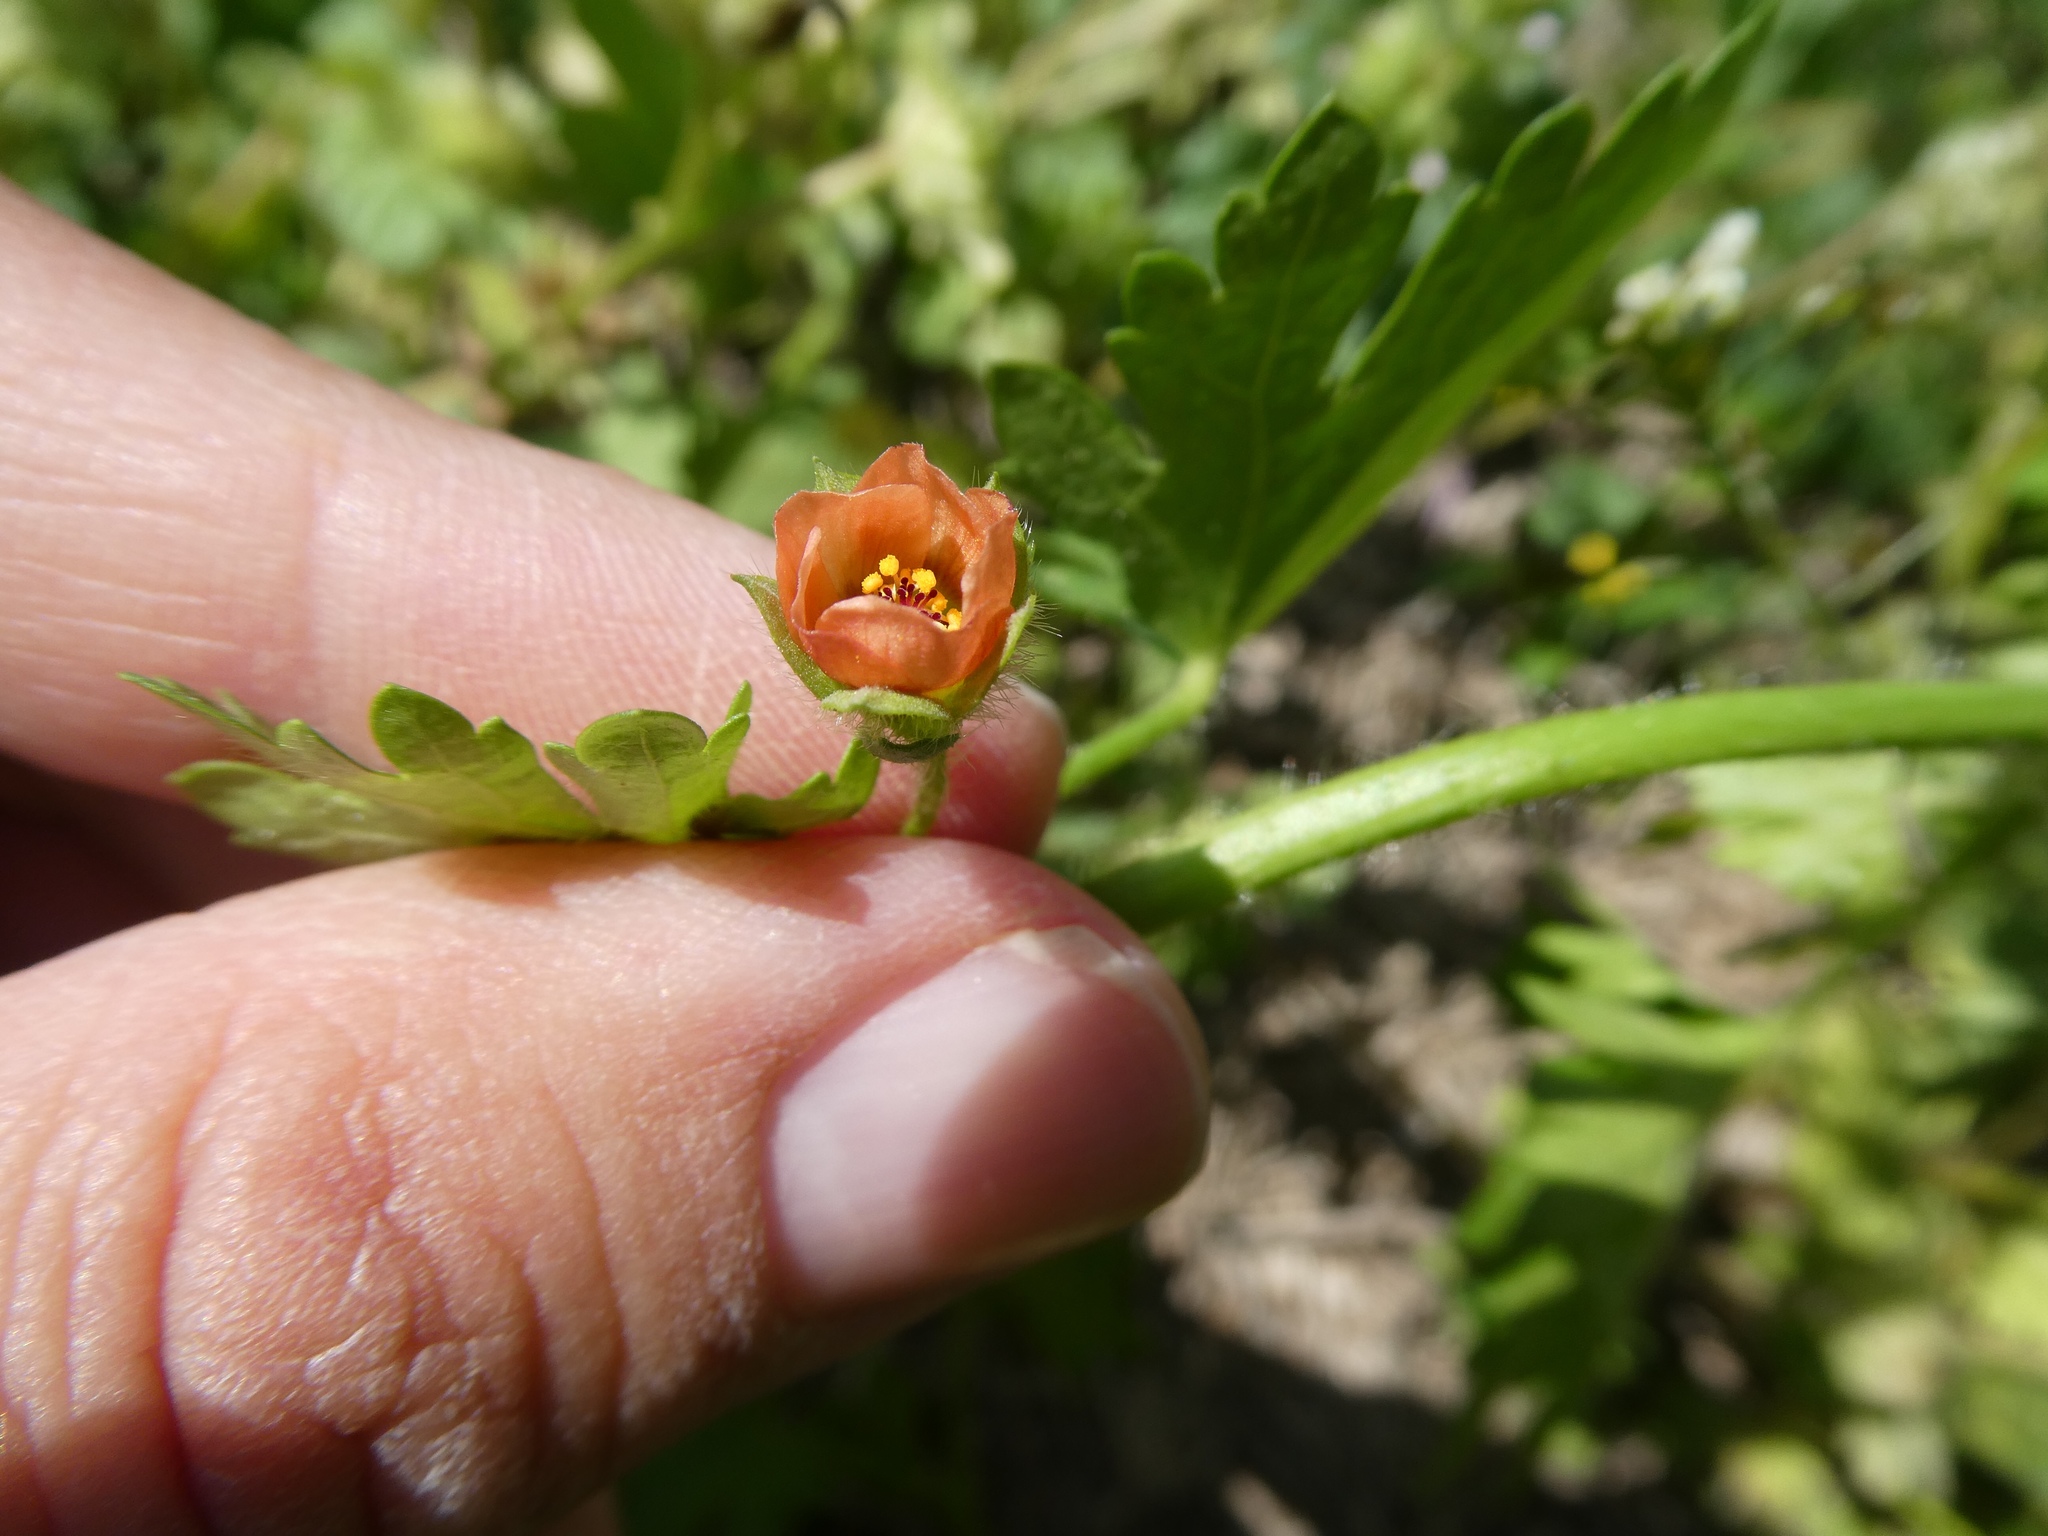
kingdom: Plantae
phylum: Tracheophyta
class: Magnoliopsida
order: Malvales
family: Malvaceae
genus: Modiola
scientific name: Modiola caroliniana
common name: Carolina bristlemallow
